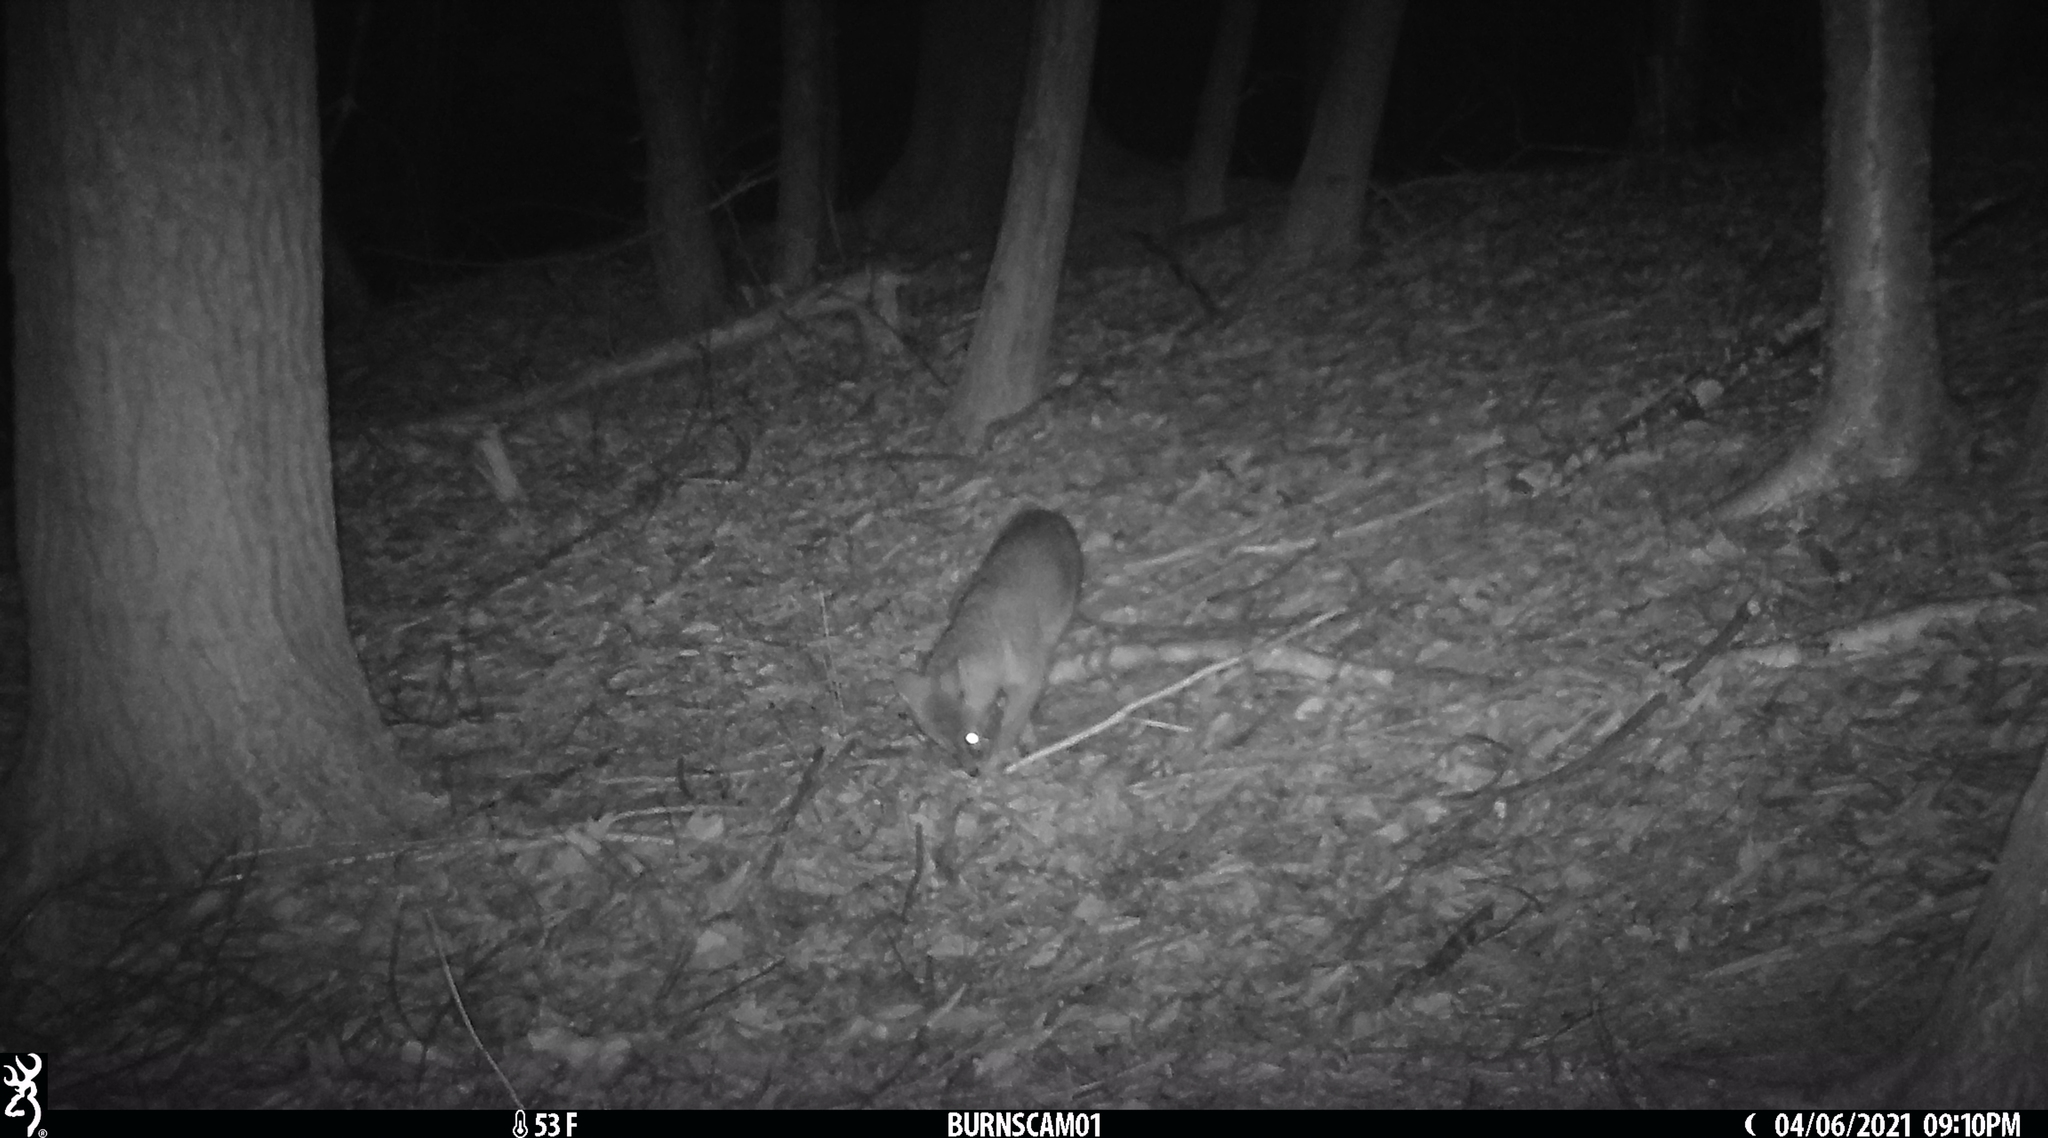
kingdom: Animalia
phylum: Chordata
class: Mammalia
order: Carnivora
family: Canidae
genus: Urocyon
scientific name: Urocyon cinereoargenteus
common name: Gray fox
